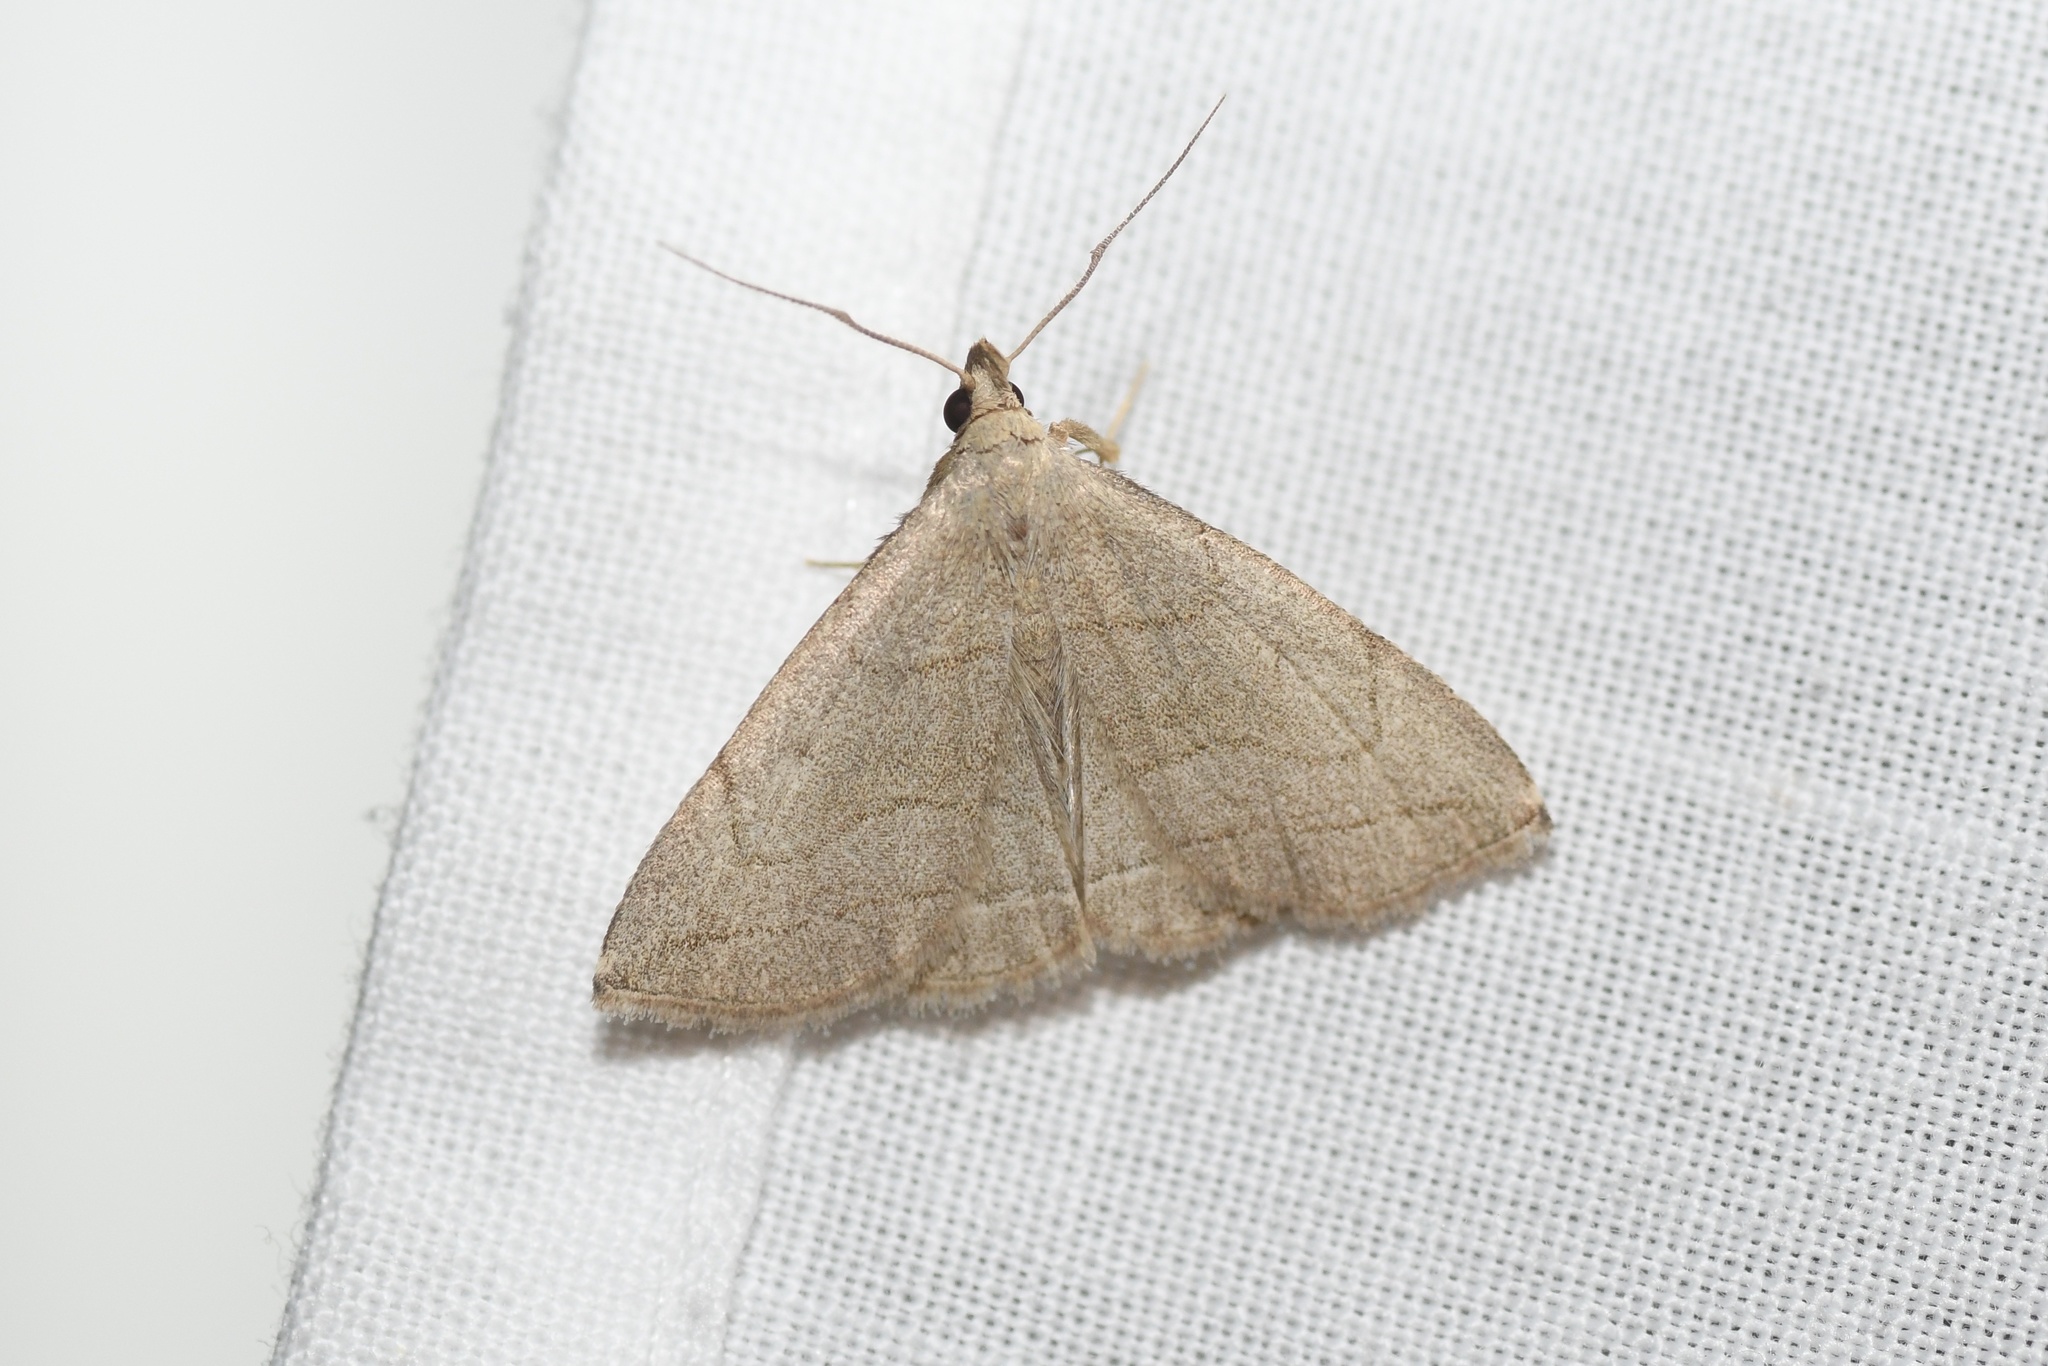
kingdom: Animalia
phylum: Arthropoda
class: Insecta
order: Lepidoptera
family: Erebidae
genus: Zanclognatha
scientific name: Zanclognatha pedipilalis
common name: Grayish fan-foot
